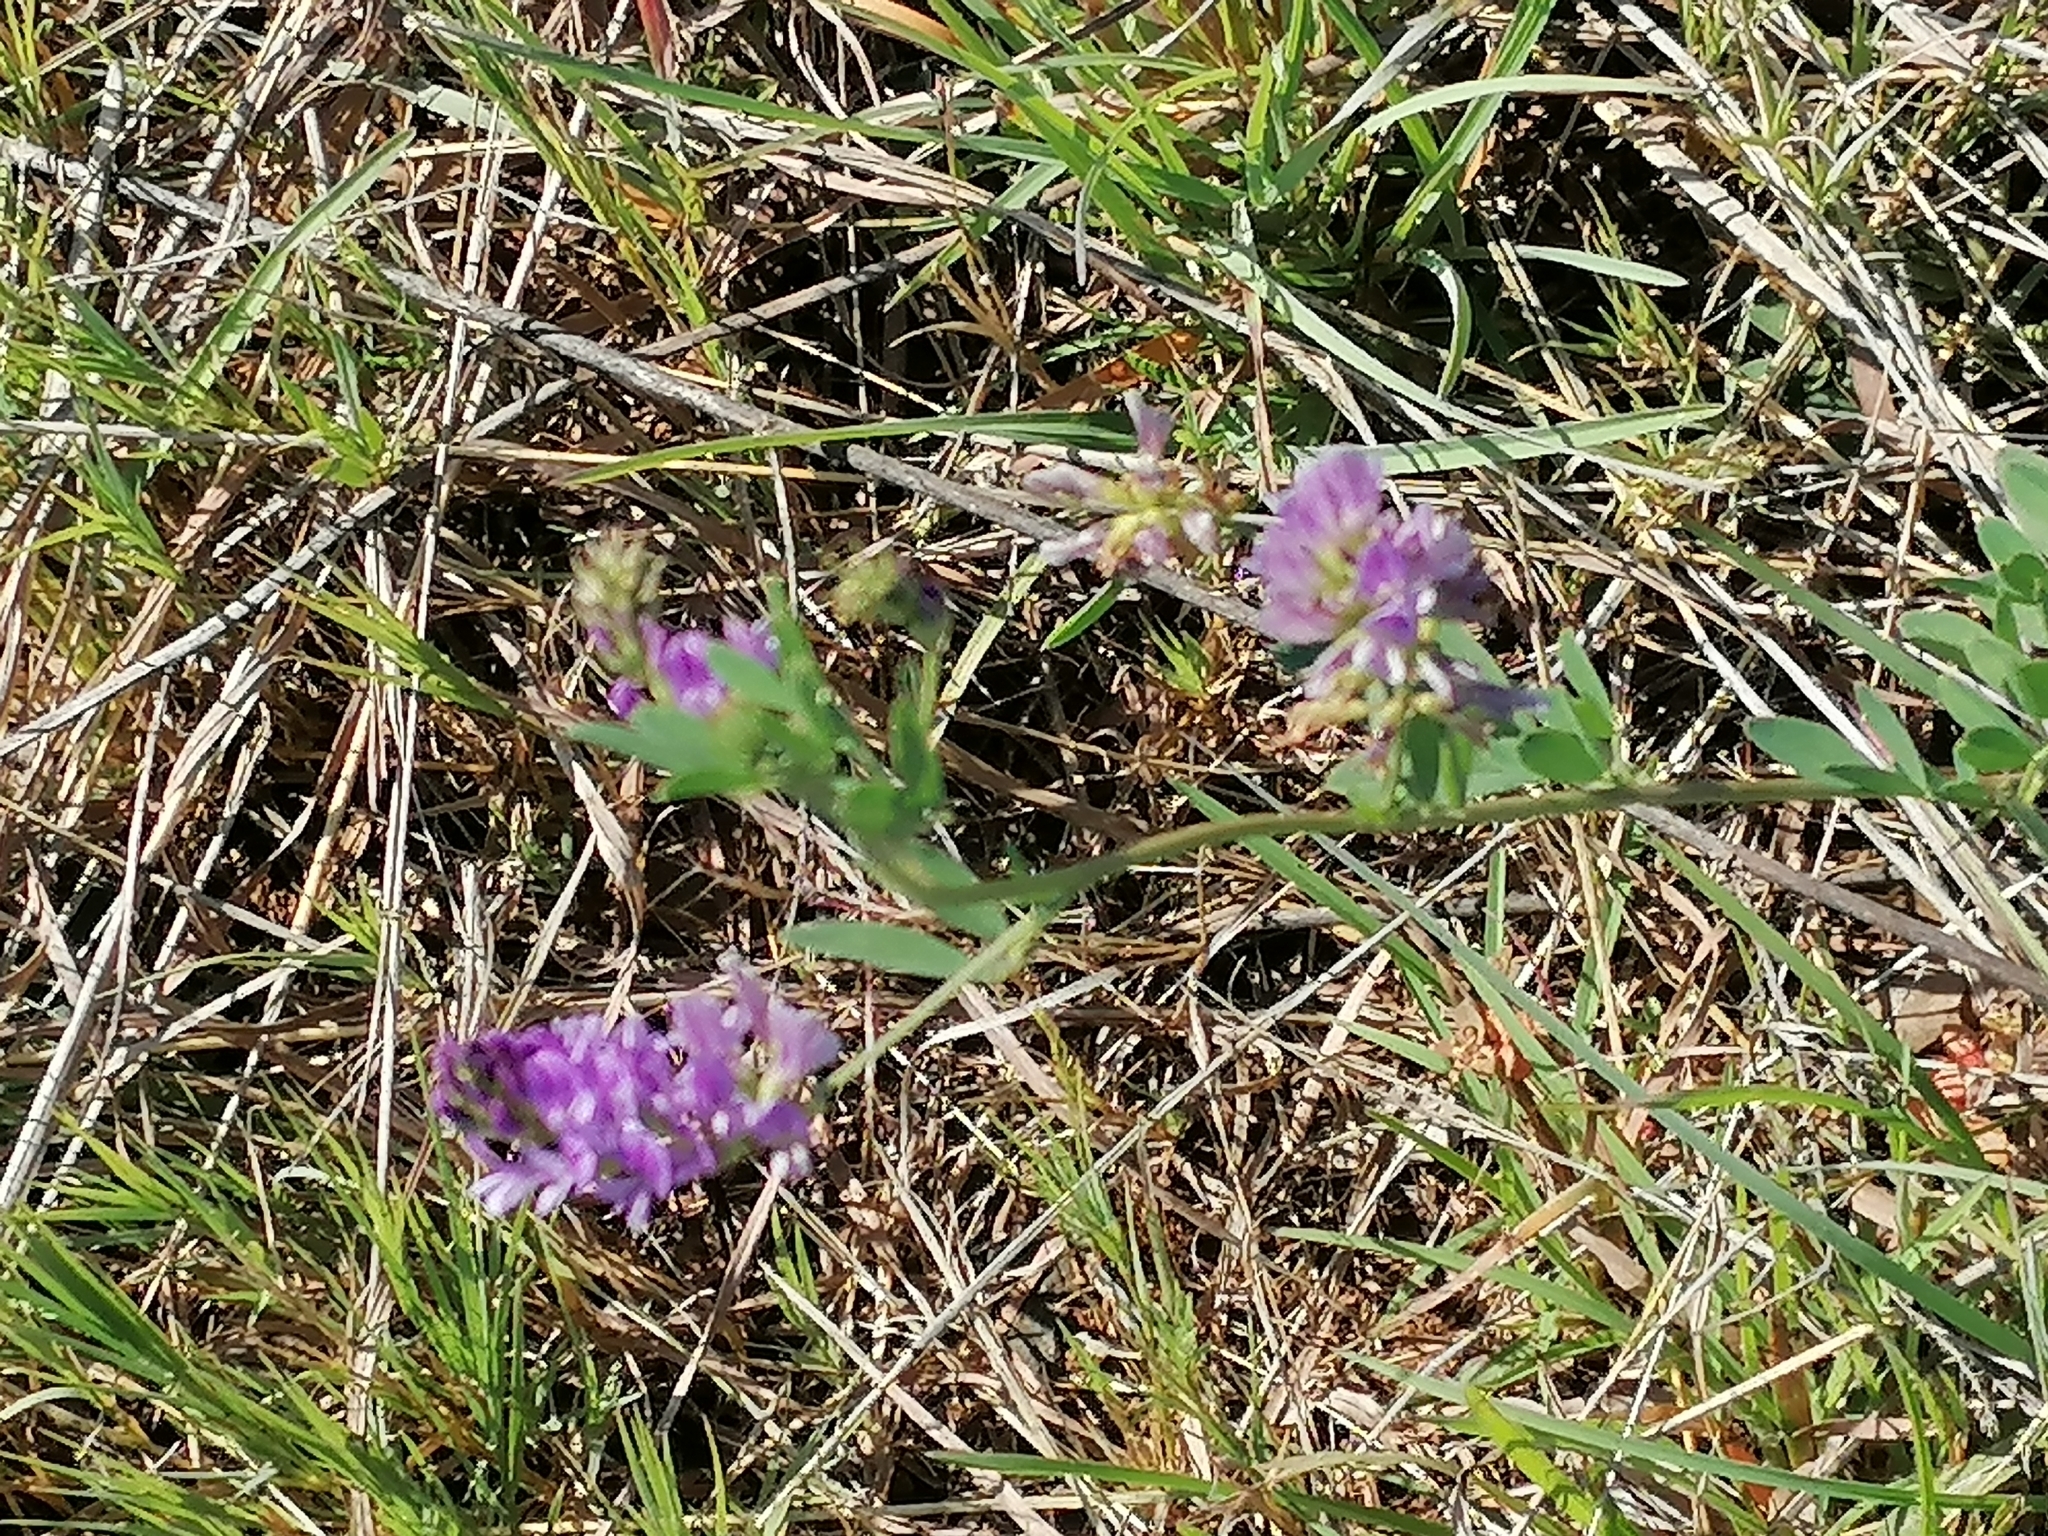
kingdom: Plantae
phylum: Tracheophyta
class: Magnoliopsida
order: Fabales
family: Fabaceae
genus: Medicago
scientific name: Medicago sativa
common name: Alfalfa
